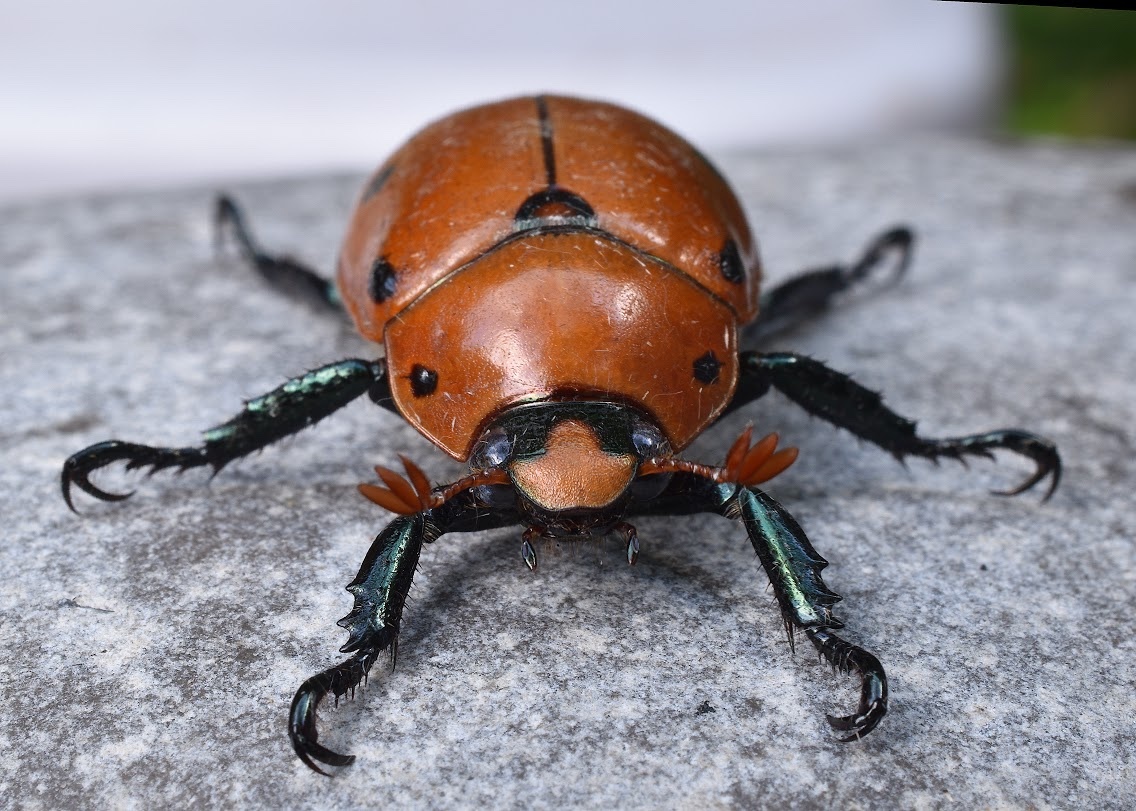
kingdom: Animalia
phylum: Arthropoda
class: Insecta
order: Coleoptera
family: Scarabaeidae
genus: Pelidnota
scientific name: Pelidnota punctata
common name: Grapevine beetle
